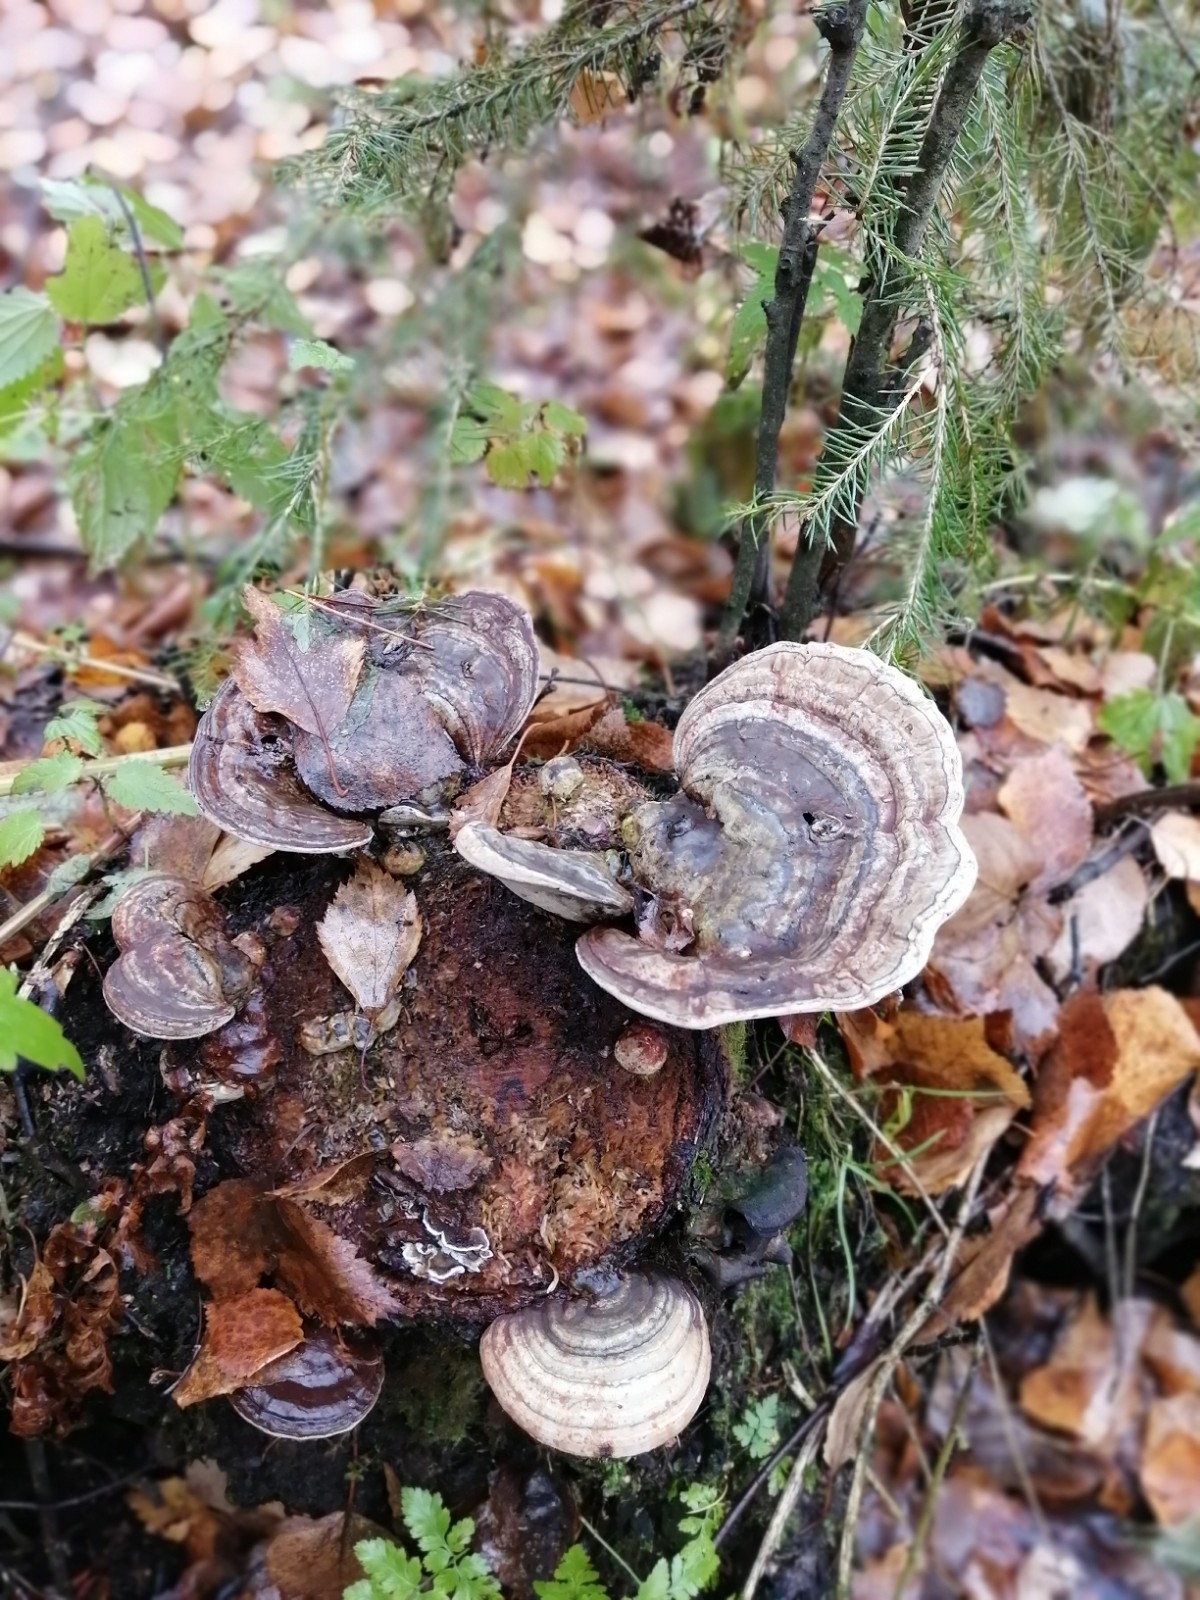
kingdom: Fungi
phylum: Basidiomycota
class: Agaricomycetes
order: Polyporales
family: Polyporaceae
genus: Ganoderma
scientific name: Ganoderma applanatum
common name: Artist's bracket
